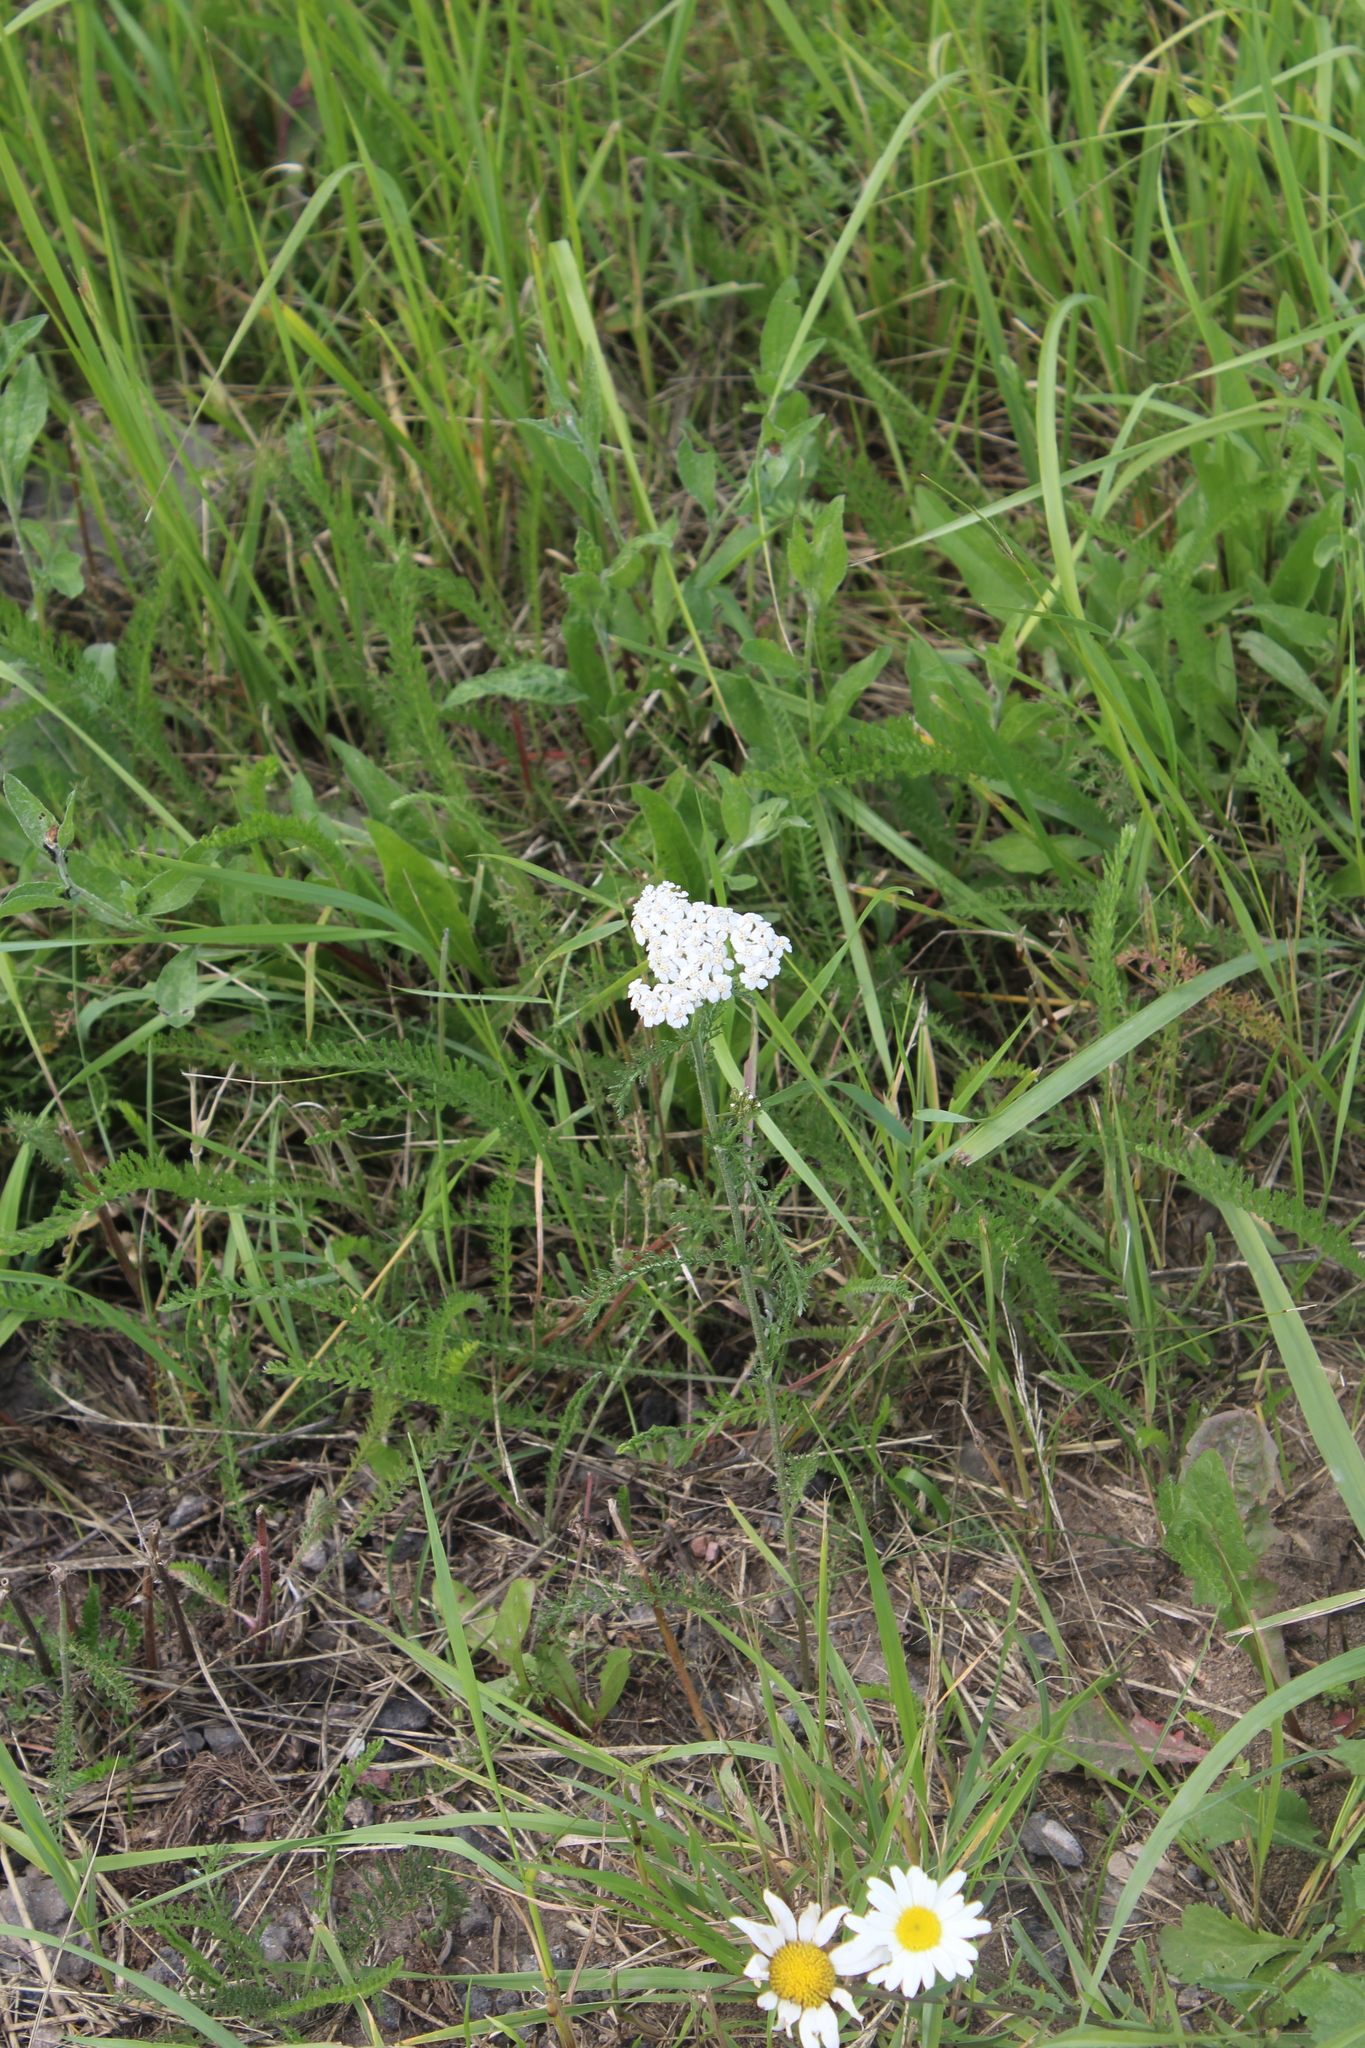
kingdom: Plantae
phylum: Tracheophyta
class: Magnoliopsida
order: Asterales
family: Asteraceae
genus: Achillea
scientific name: Achillea millefolium
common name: Yarrow
